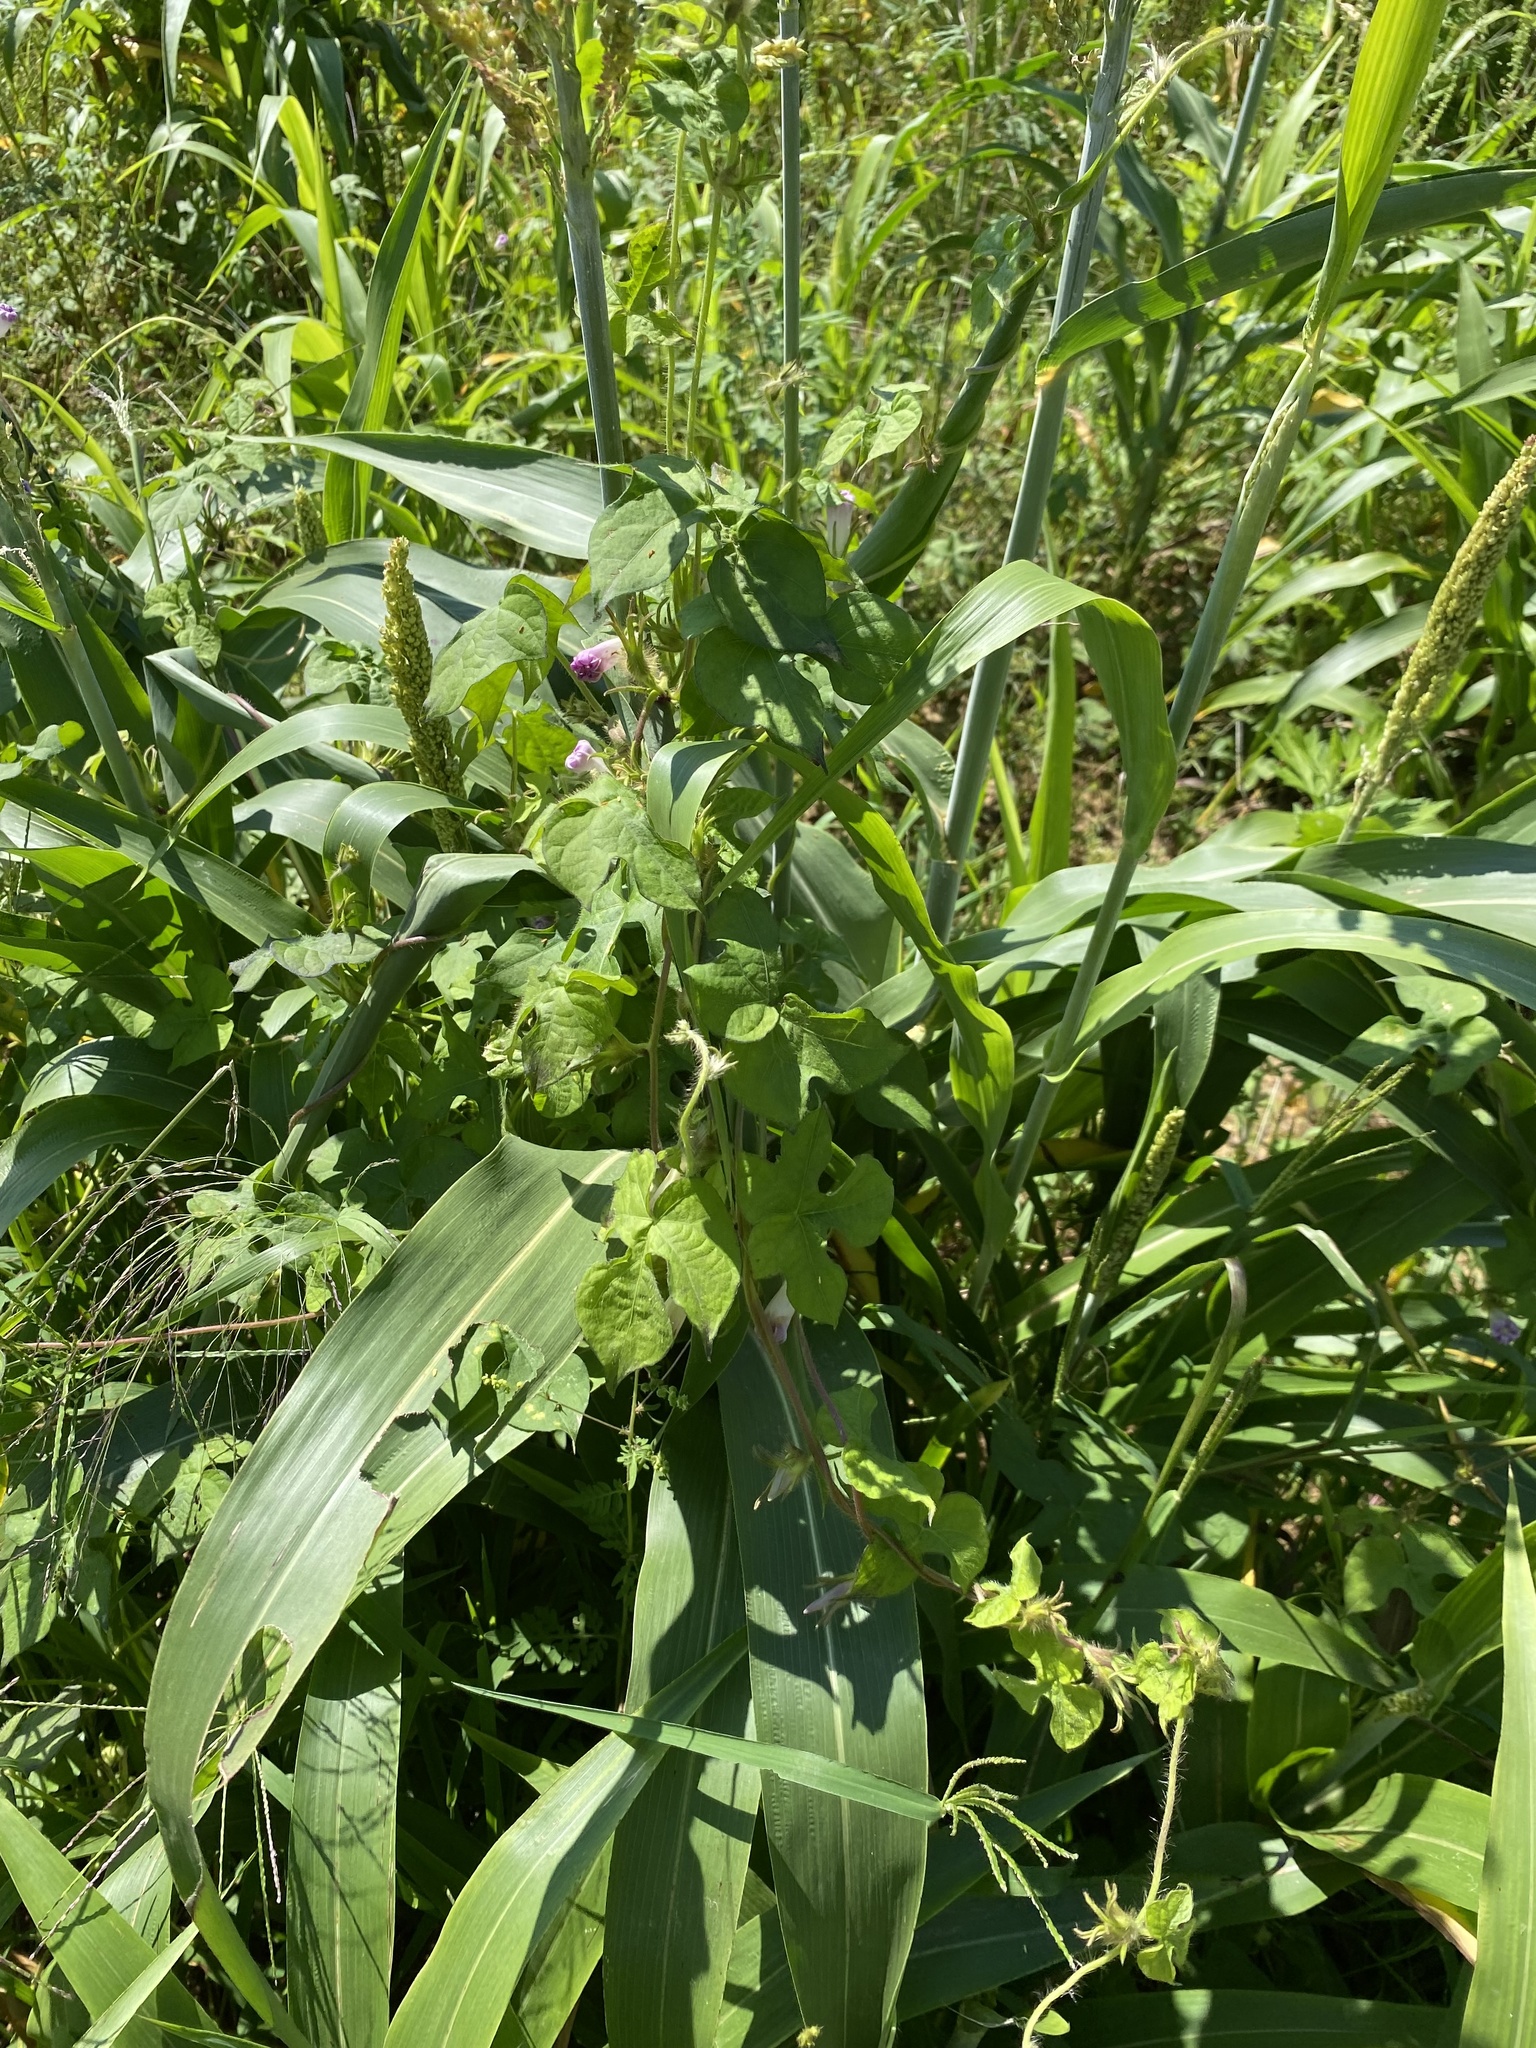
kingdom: Plantae
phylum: Tracheophyta
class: Magnoliopsida
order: Solanales
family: Convolvulaceae
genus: Ipomoea
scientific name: Ipomoea hederacea
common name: Ivy-leaved morning-glory
